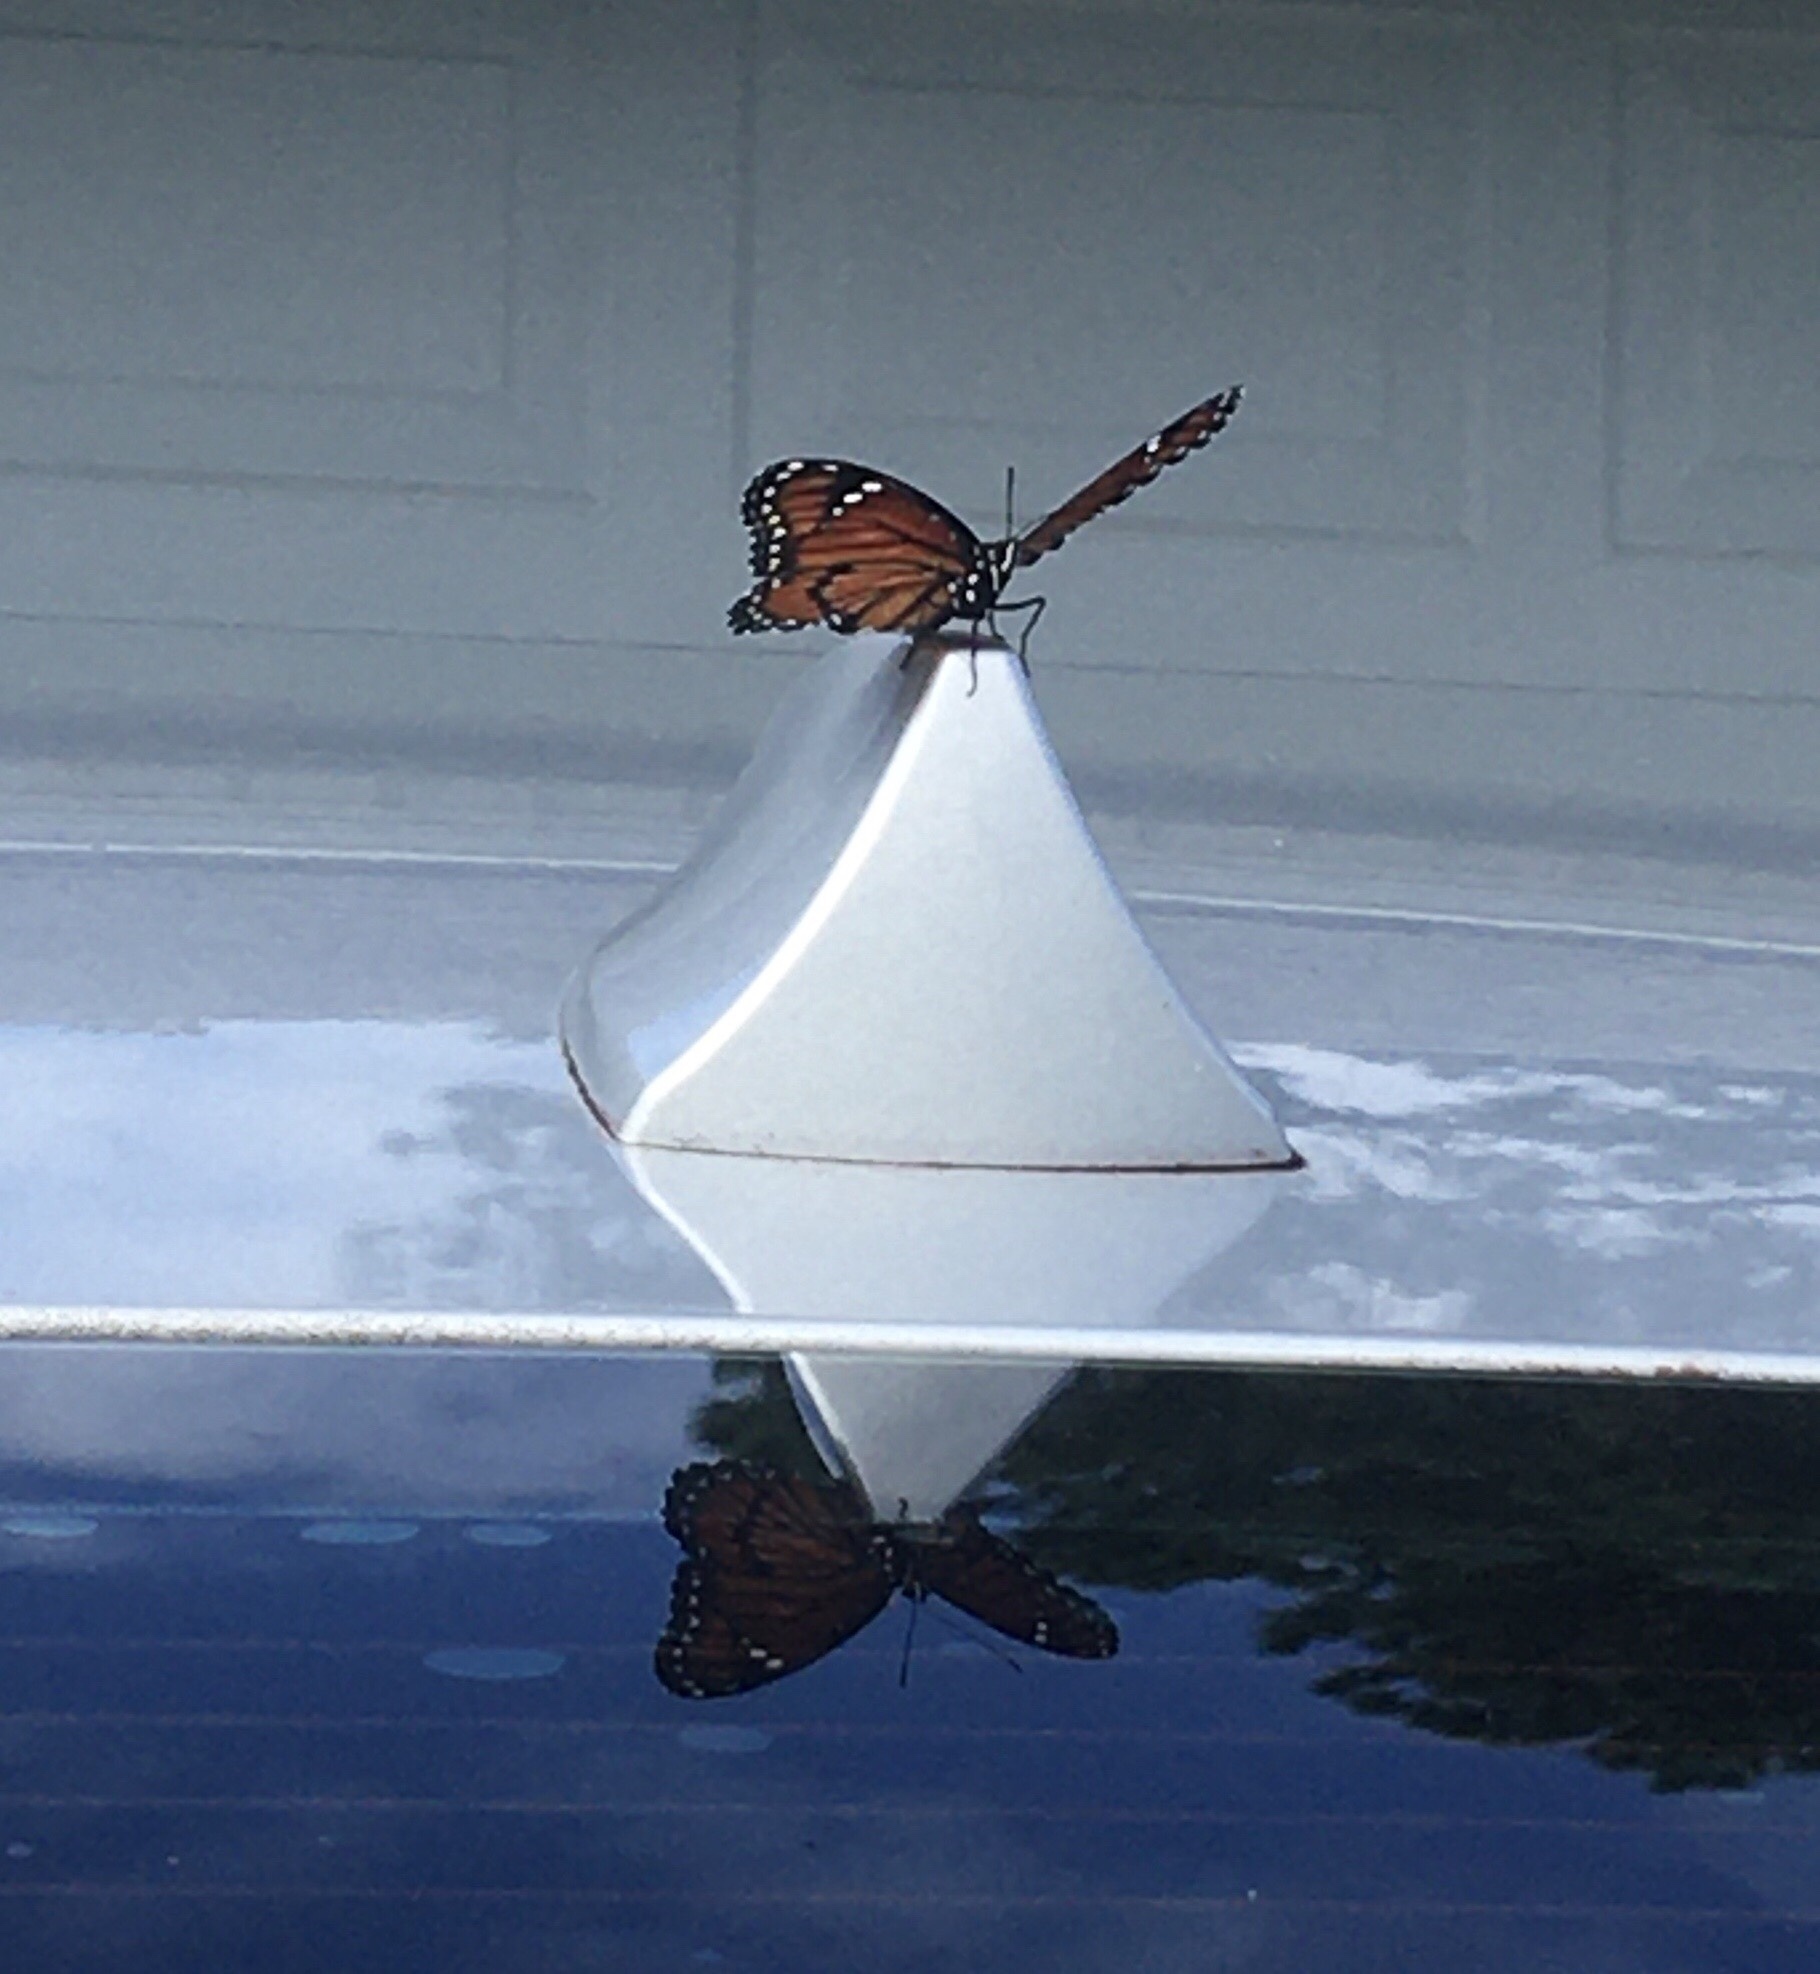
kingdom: Animalia
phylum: Arthropoda
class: Insecta
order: Lepidoptera
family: Nymphalidae
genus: Limenitis
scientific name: Limenitis archippus
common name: Viceroy
